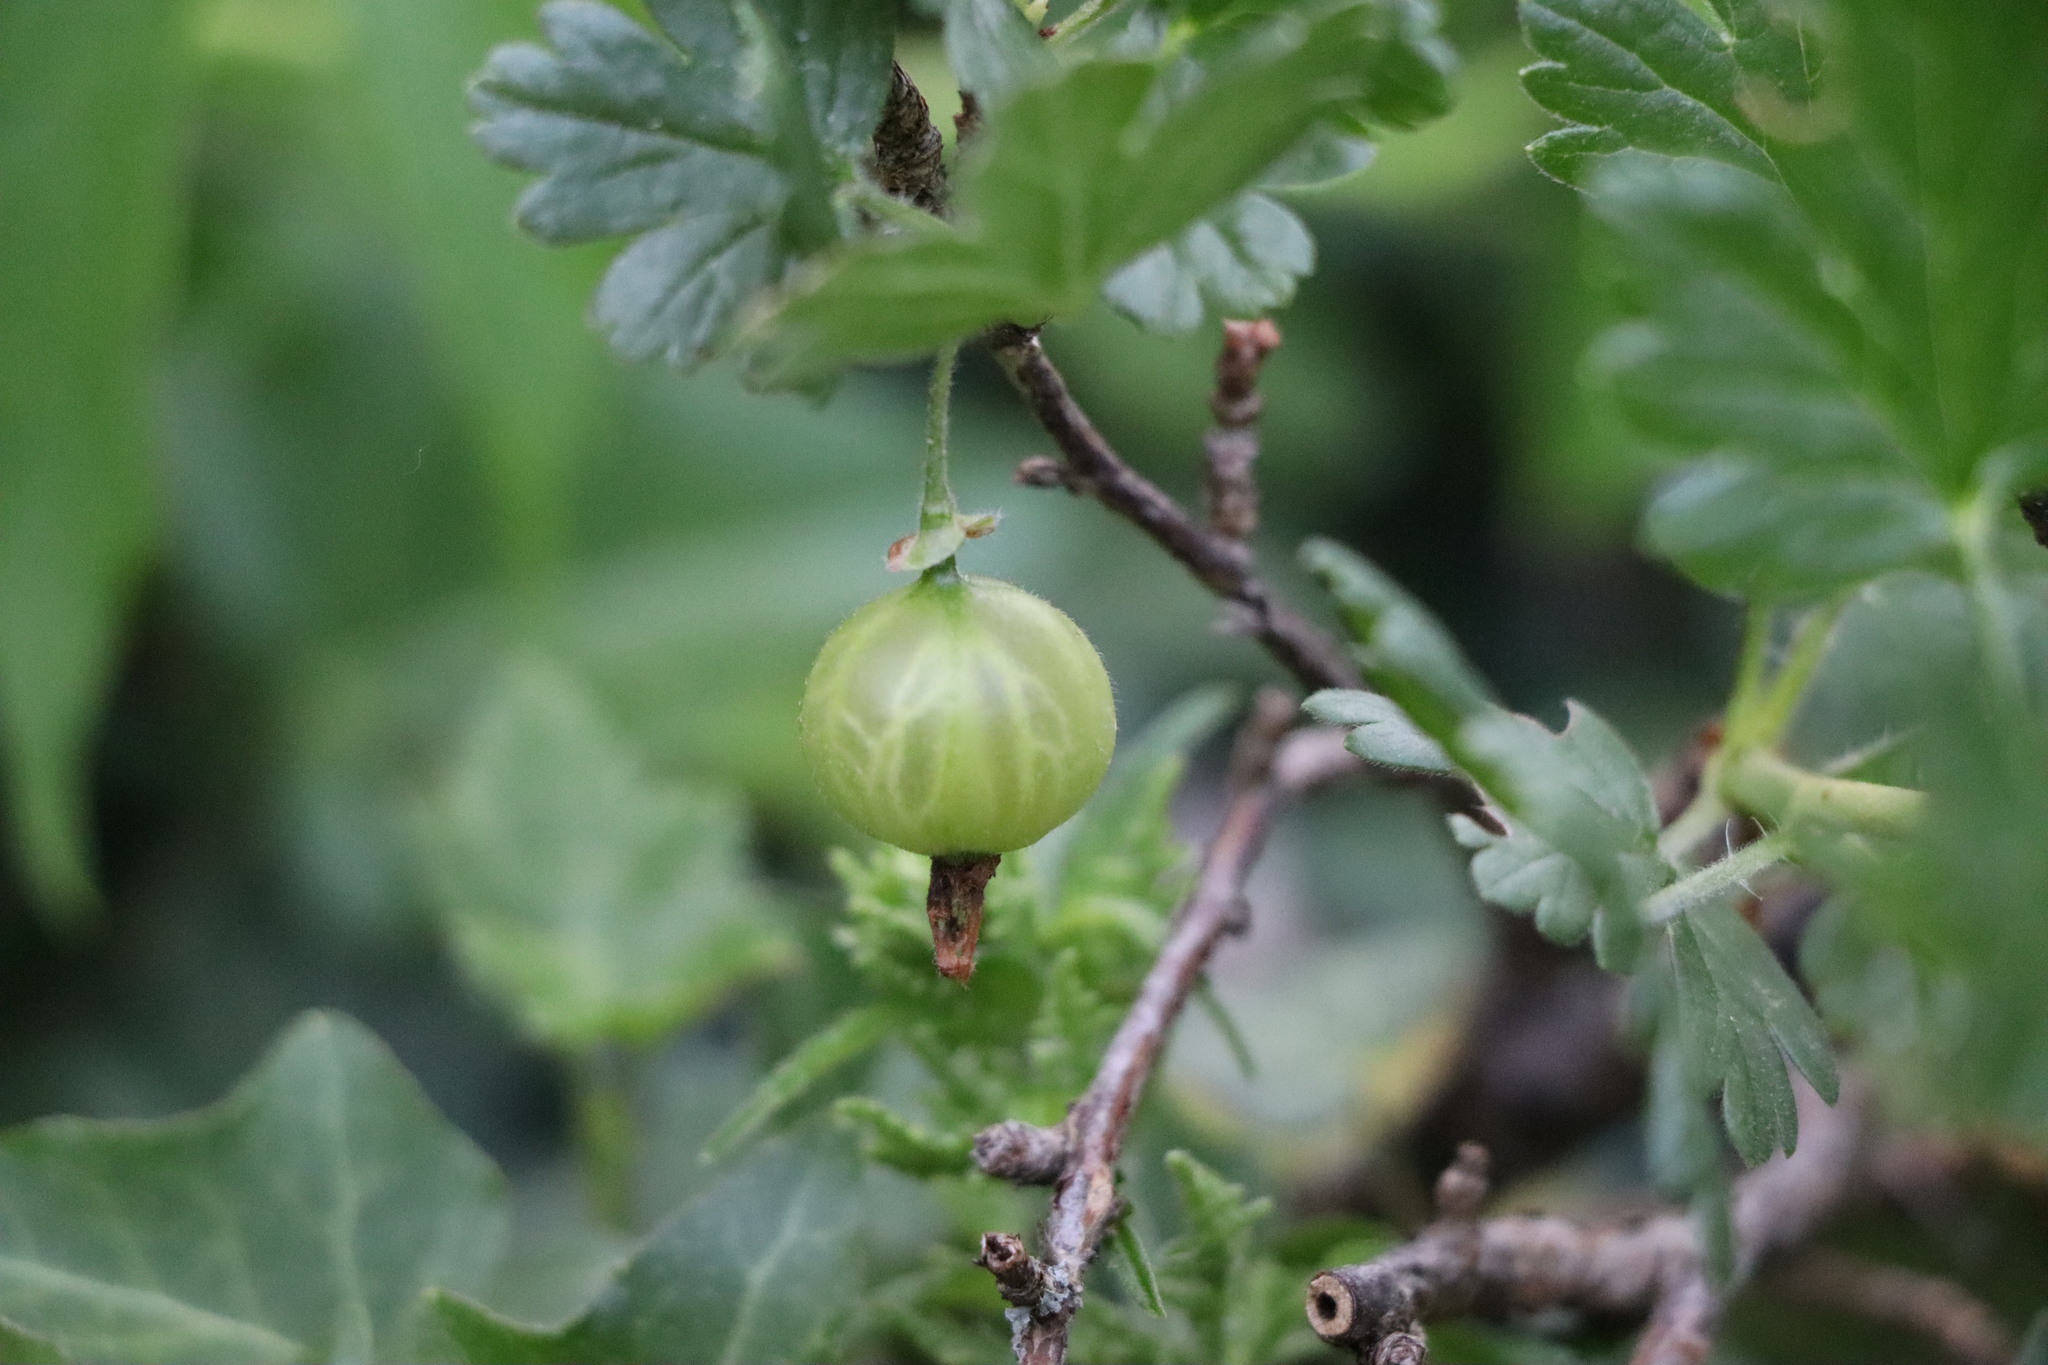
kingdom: Plantae
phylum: Tracheophyta
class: Magnoliopsida
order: Saxifragales
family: Grossulariaceae
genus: Ribes
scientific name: Ribes uva-crispa
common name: Gooseberry
